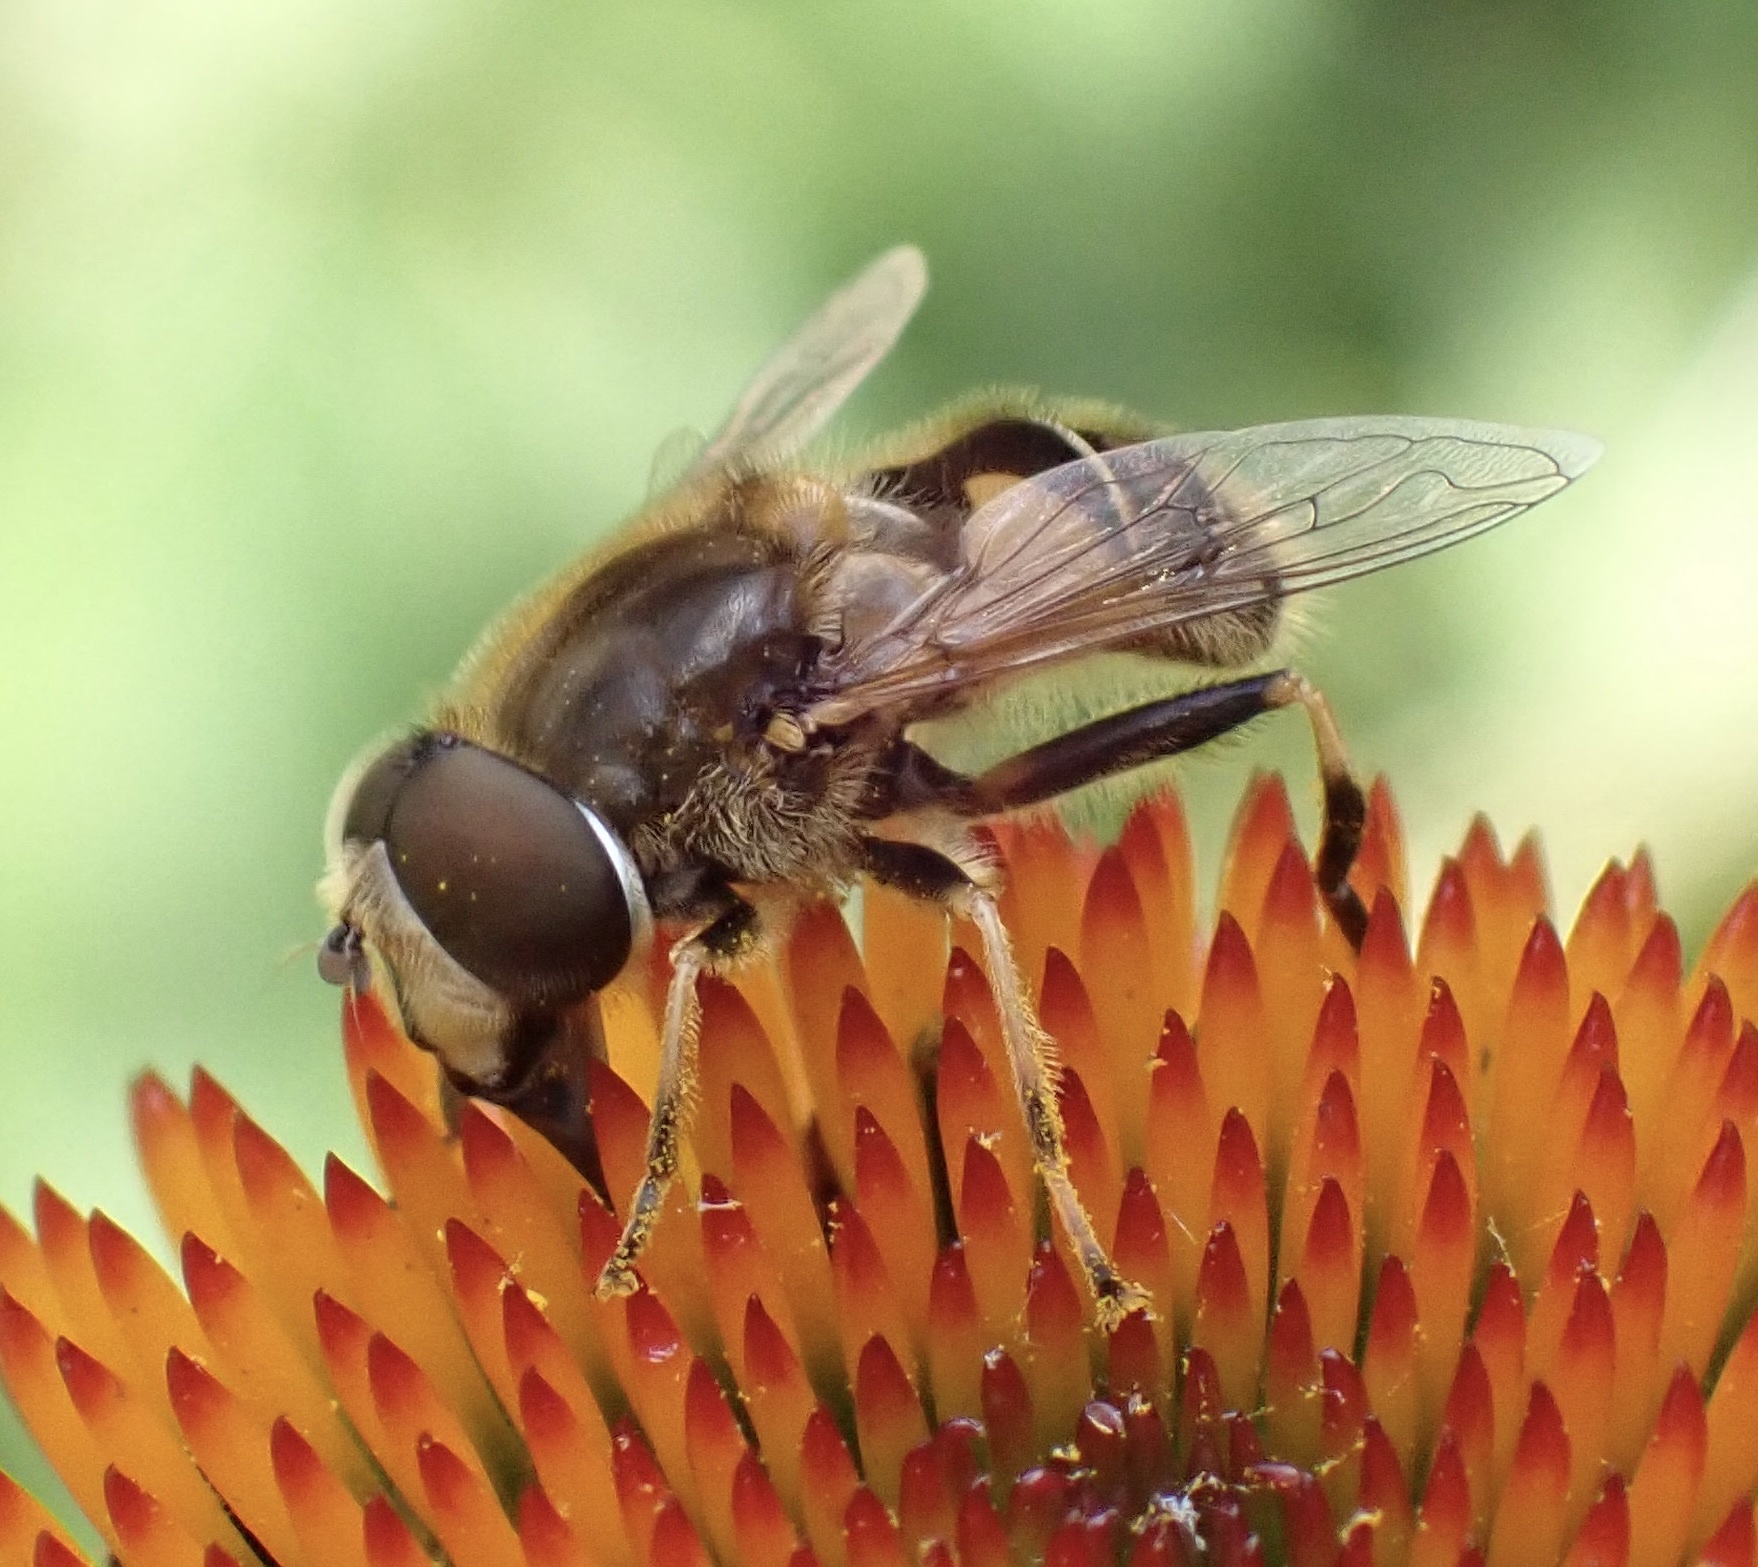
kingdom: Animalia
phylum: Arthropoda
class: Insecta
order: Diptera
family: Syrphidae
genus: Eristalis
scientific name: Eristalis nemorum
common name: Orange-spined drone fly
